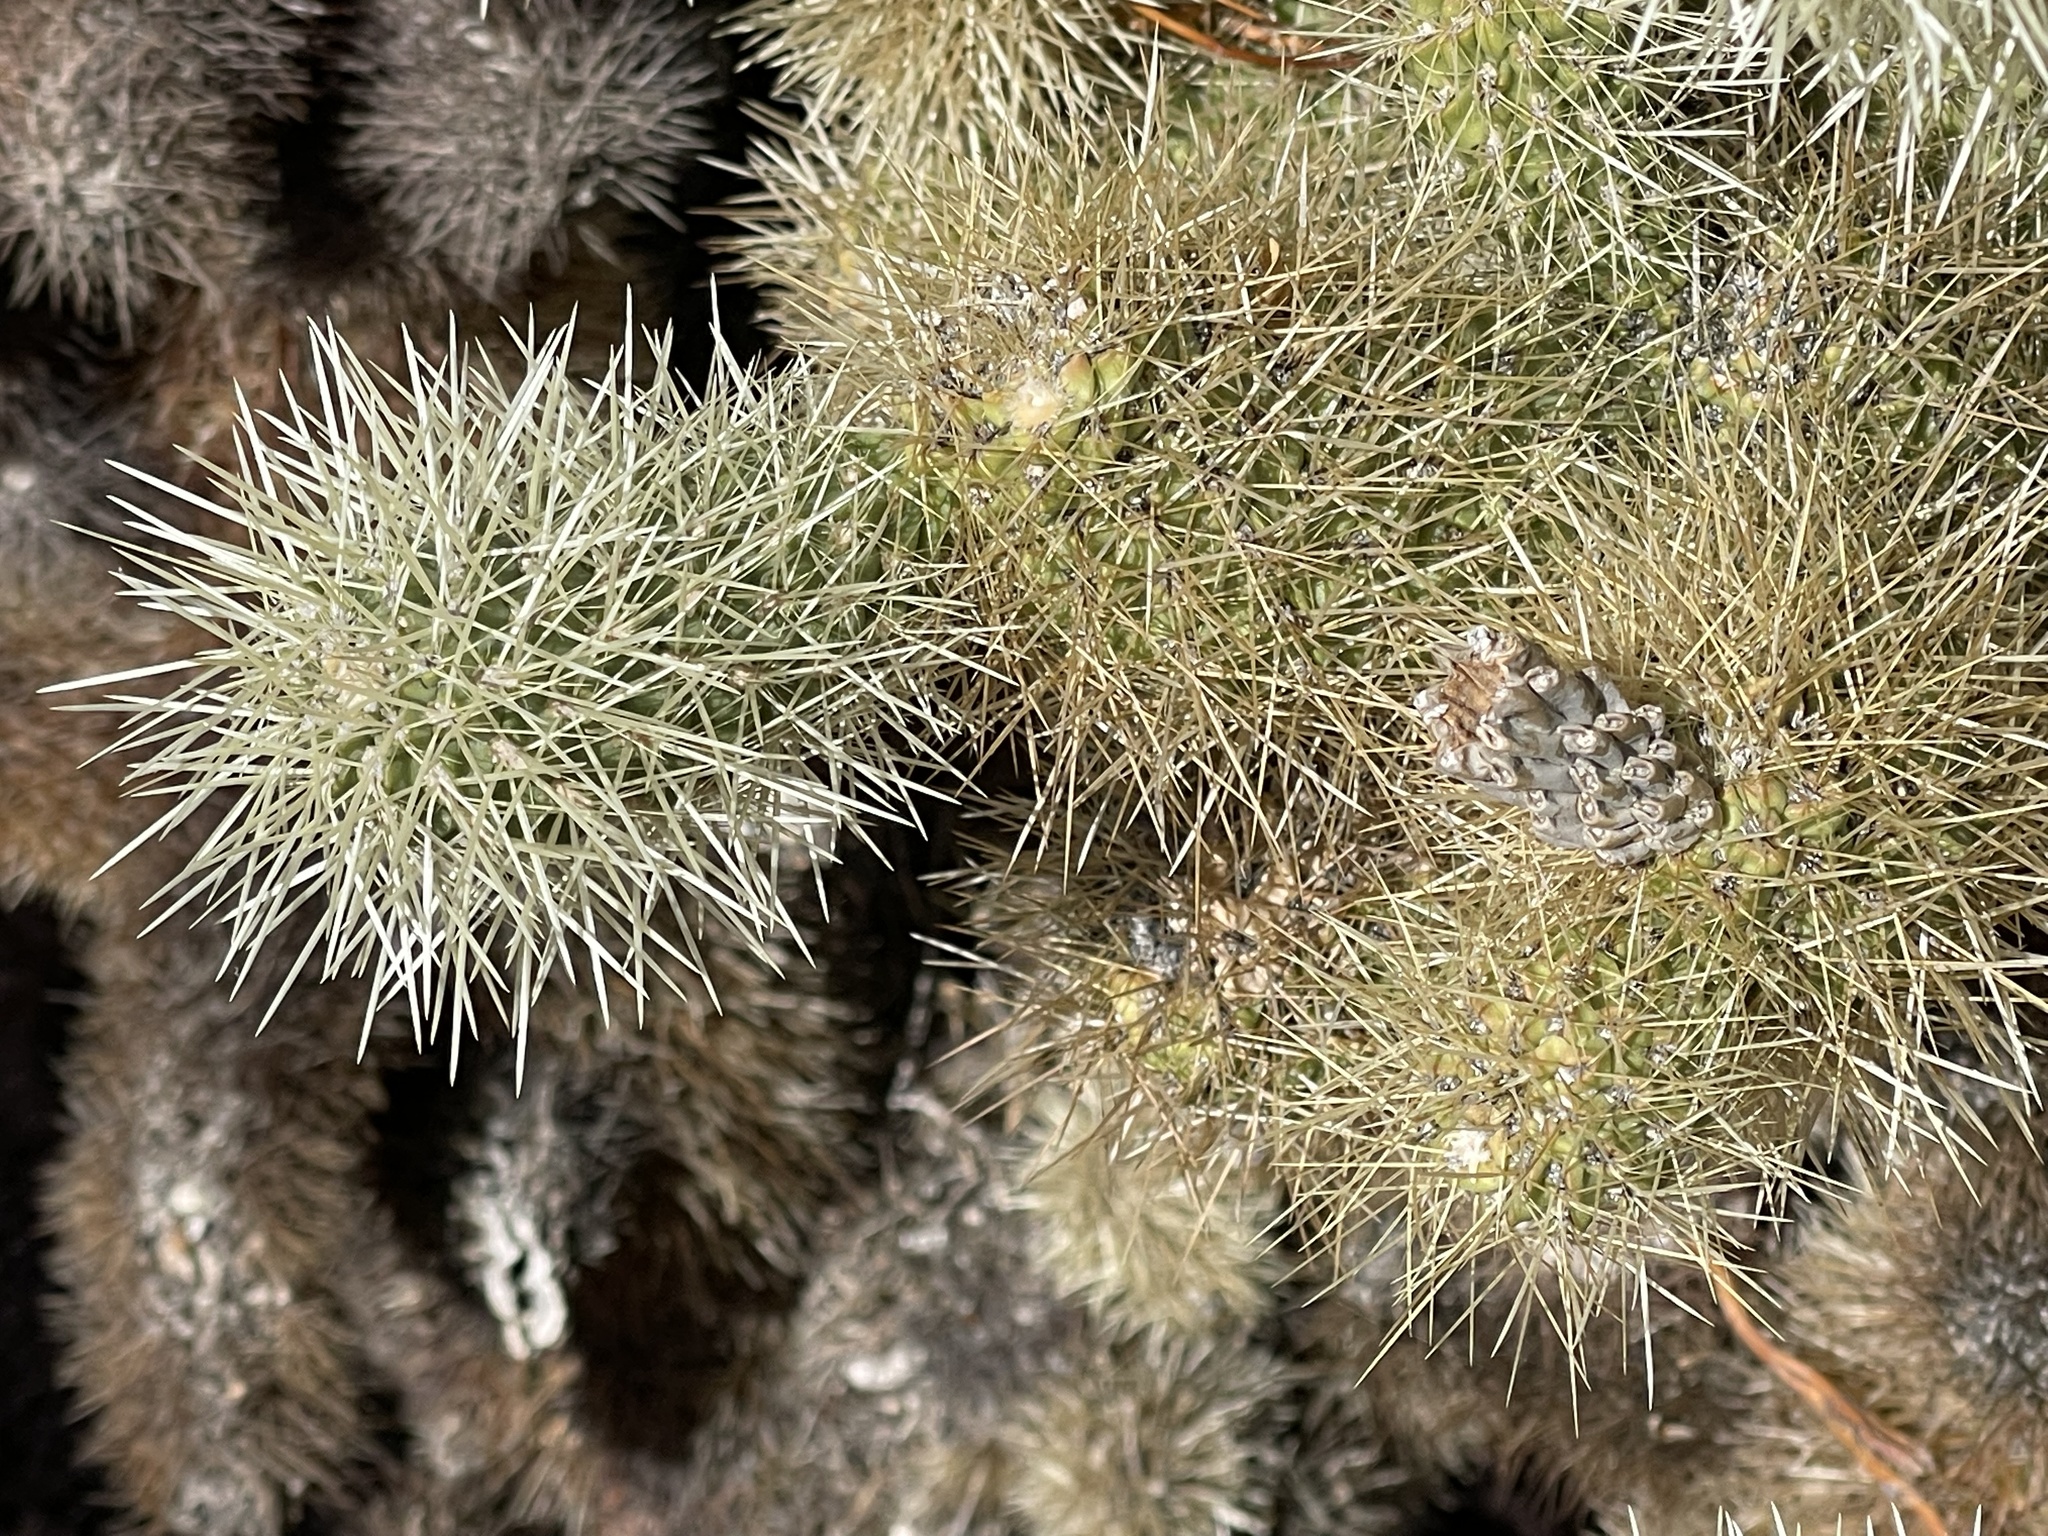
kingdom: Plantae
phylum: Tracheophyta
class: Magnoliopsida
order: Caryophyllales
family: Cactaceae
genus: Cylindropuntia
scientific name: Cylindropuntia fosbergii
